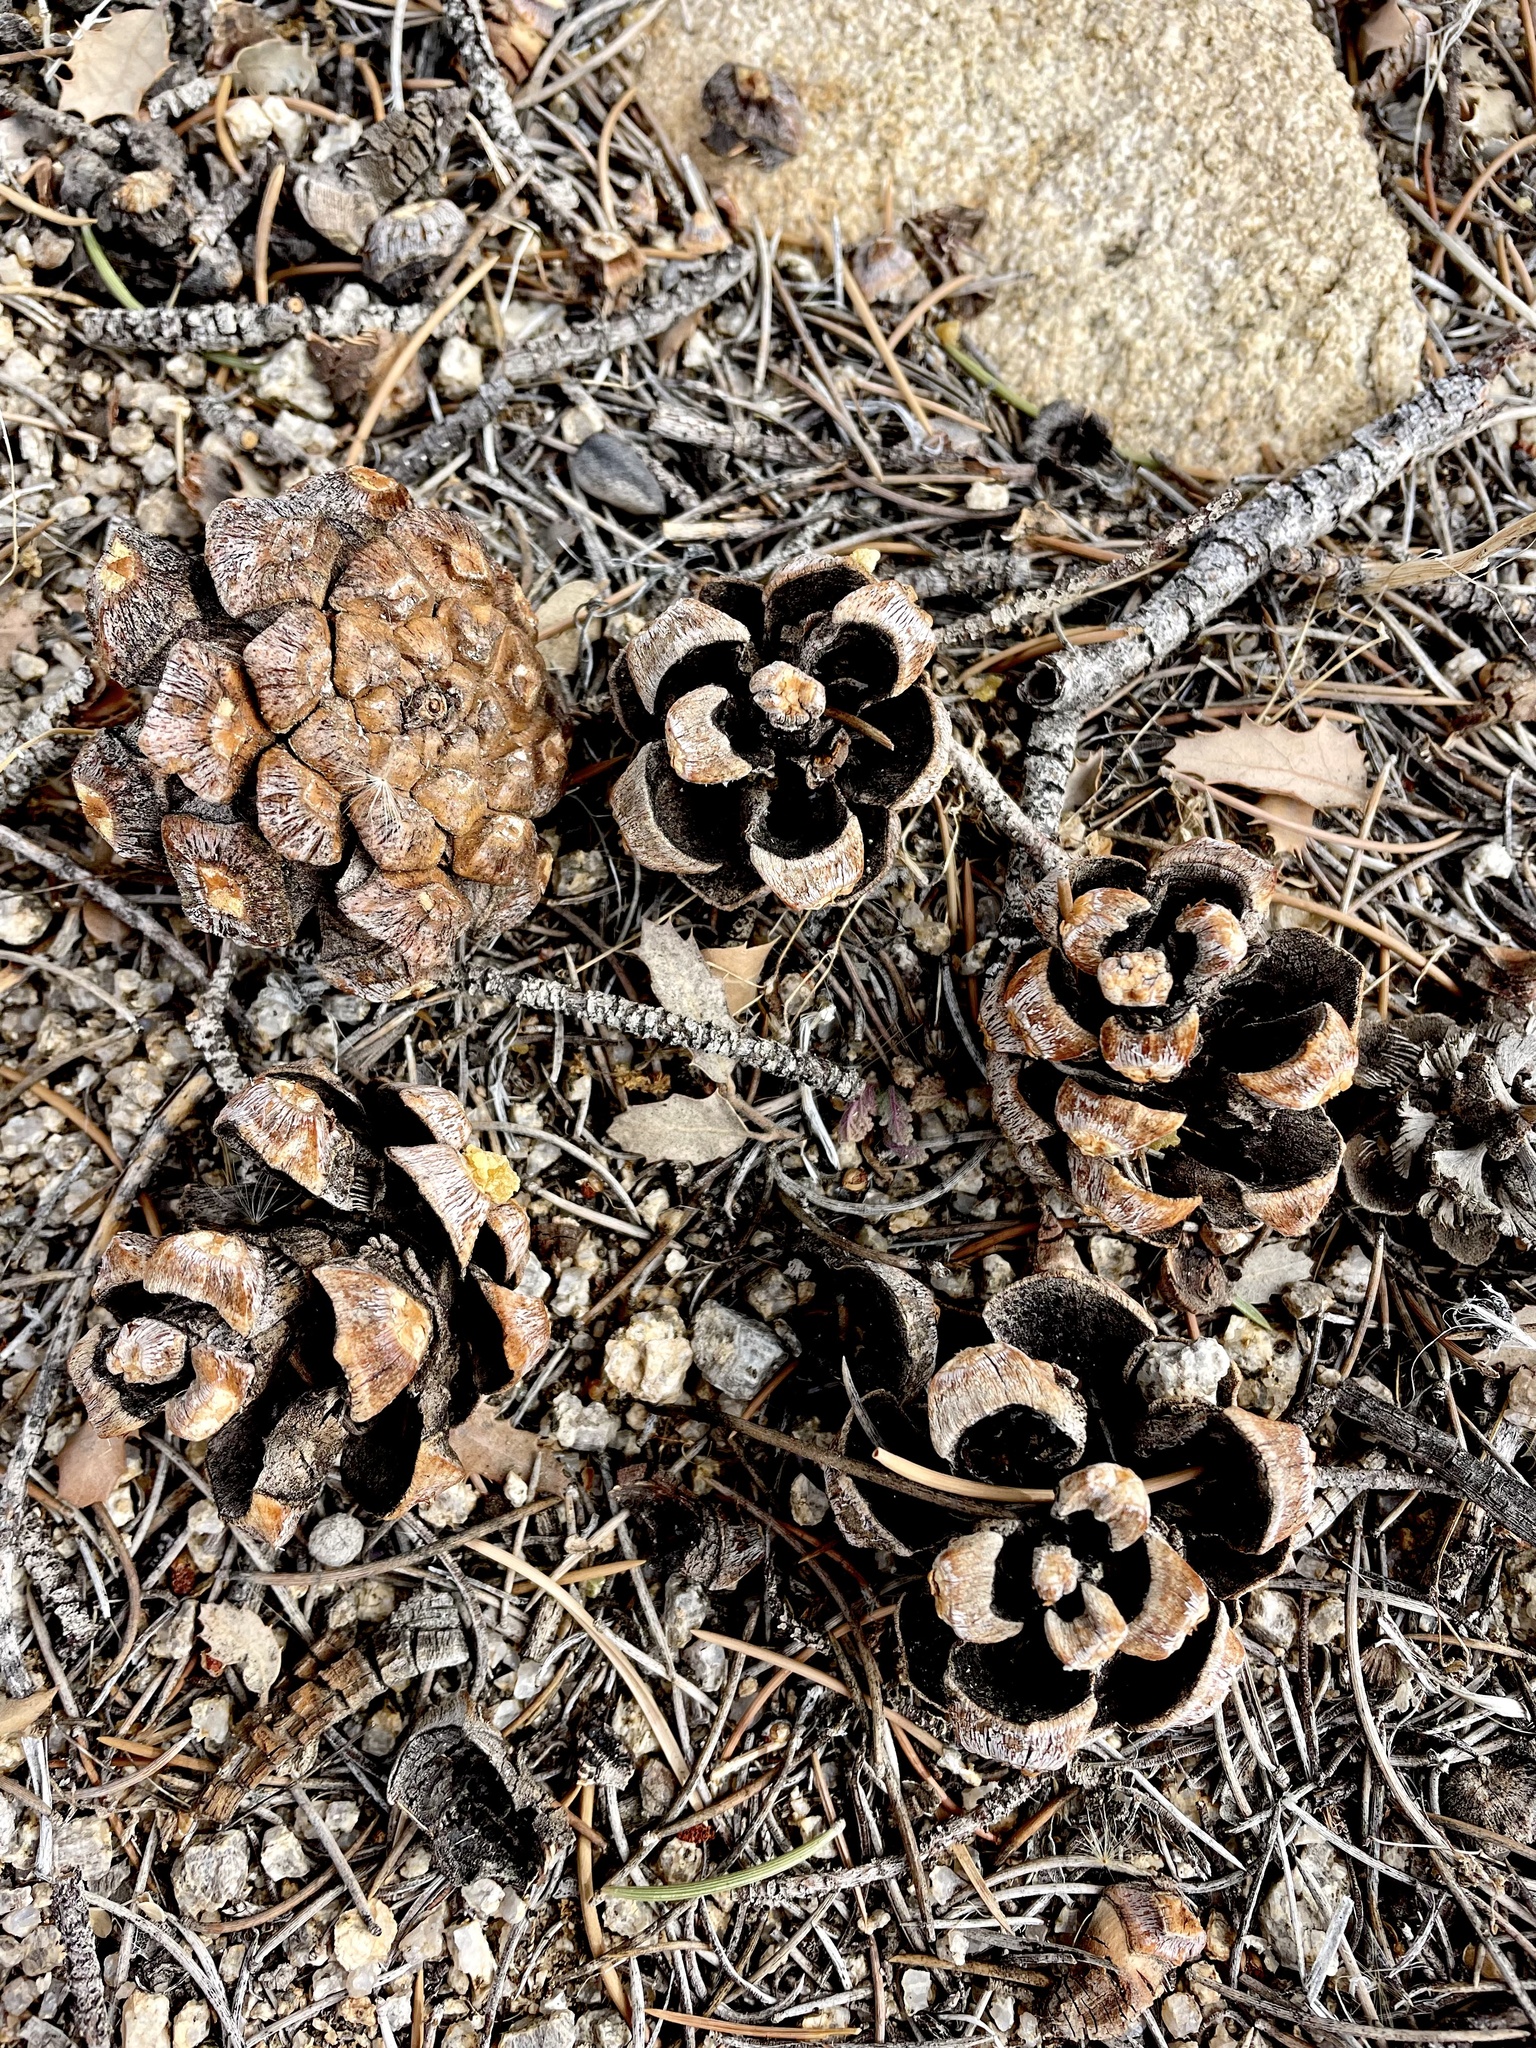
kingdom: Plantae
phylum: Tracheophyta
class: Pinopsida
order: Pinales
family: Pinaceae
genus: Pinus
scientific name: Pinus monophylla
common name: One-leaved nut pine
